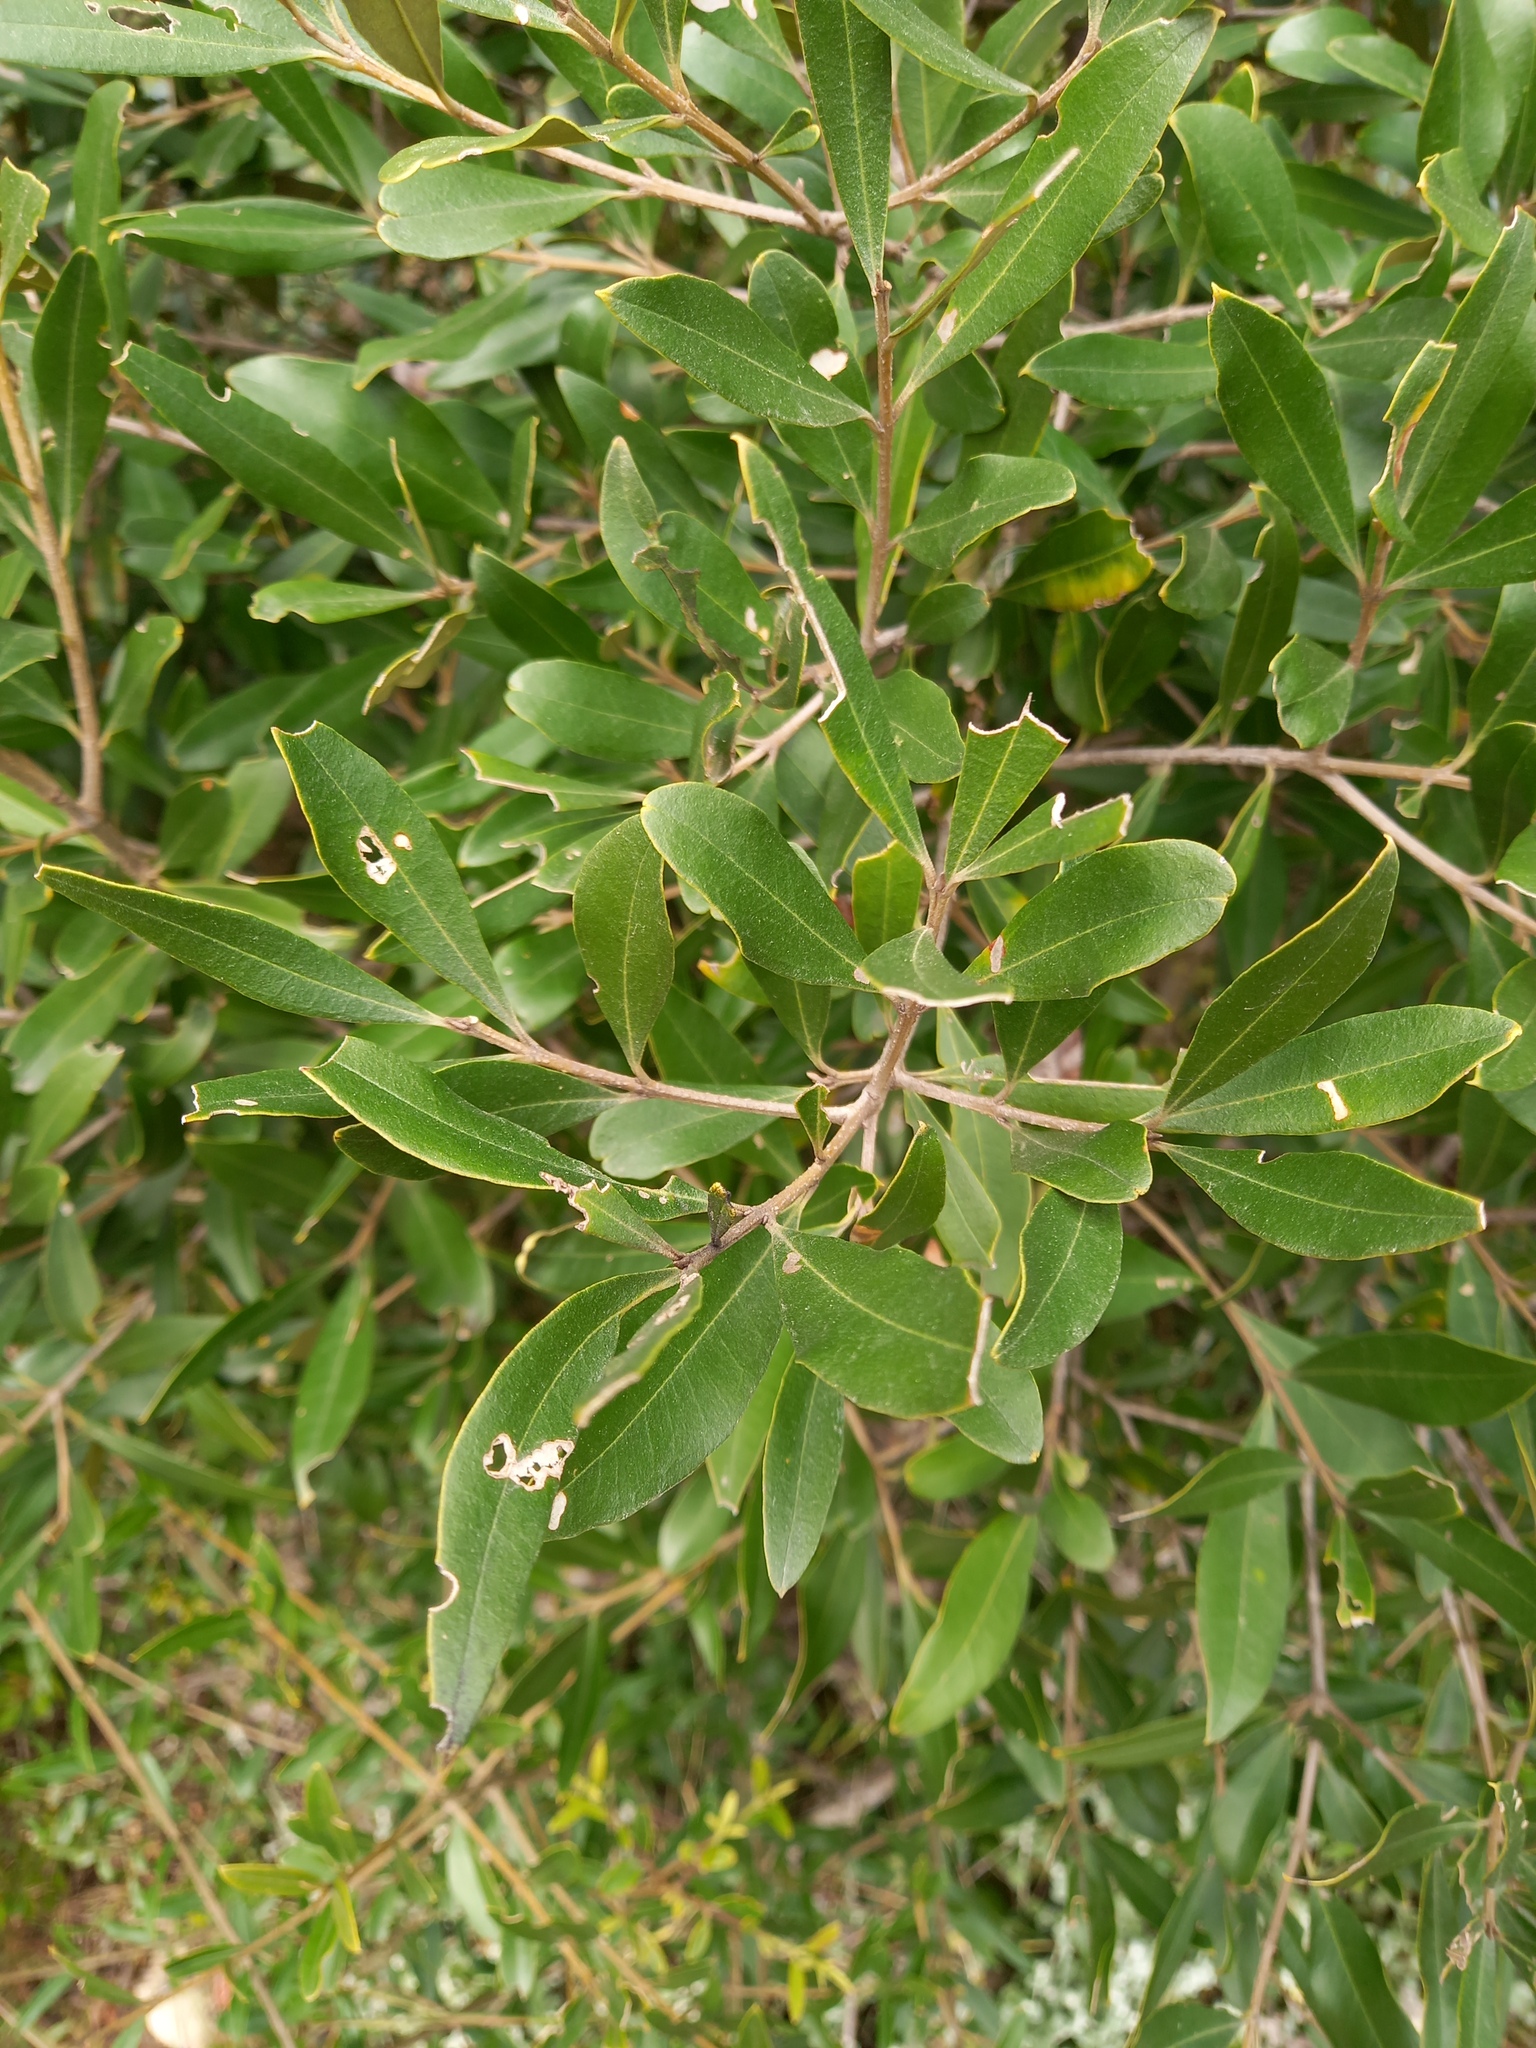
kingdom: Plantae
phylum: Tracheophyta
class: Magnoliopsida
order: Lamiales
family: Oleaceae
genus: Olea
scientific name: Olea exasperata
